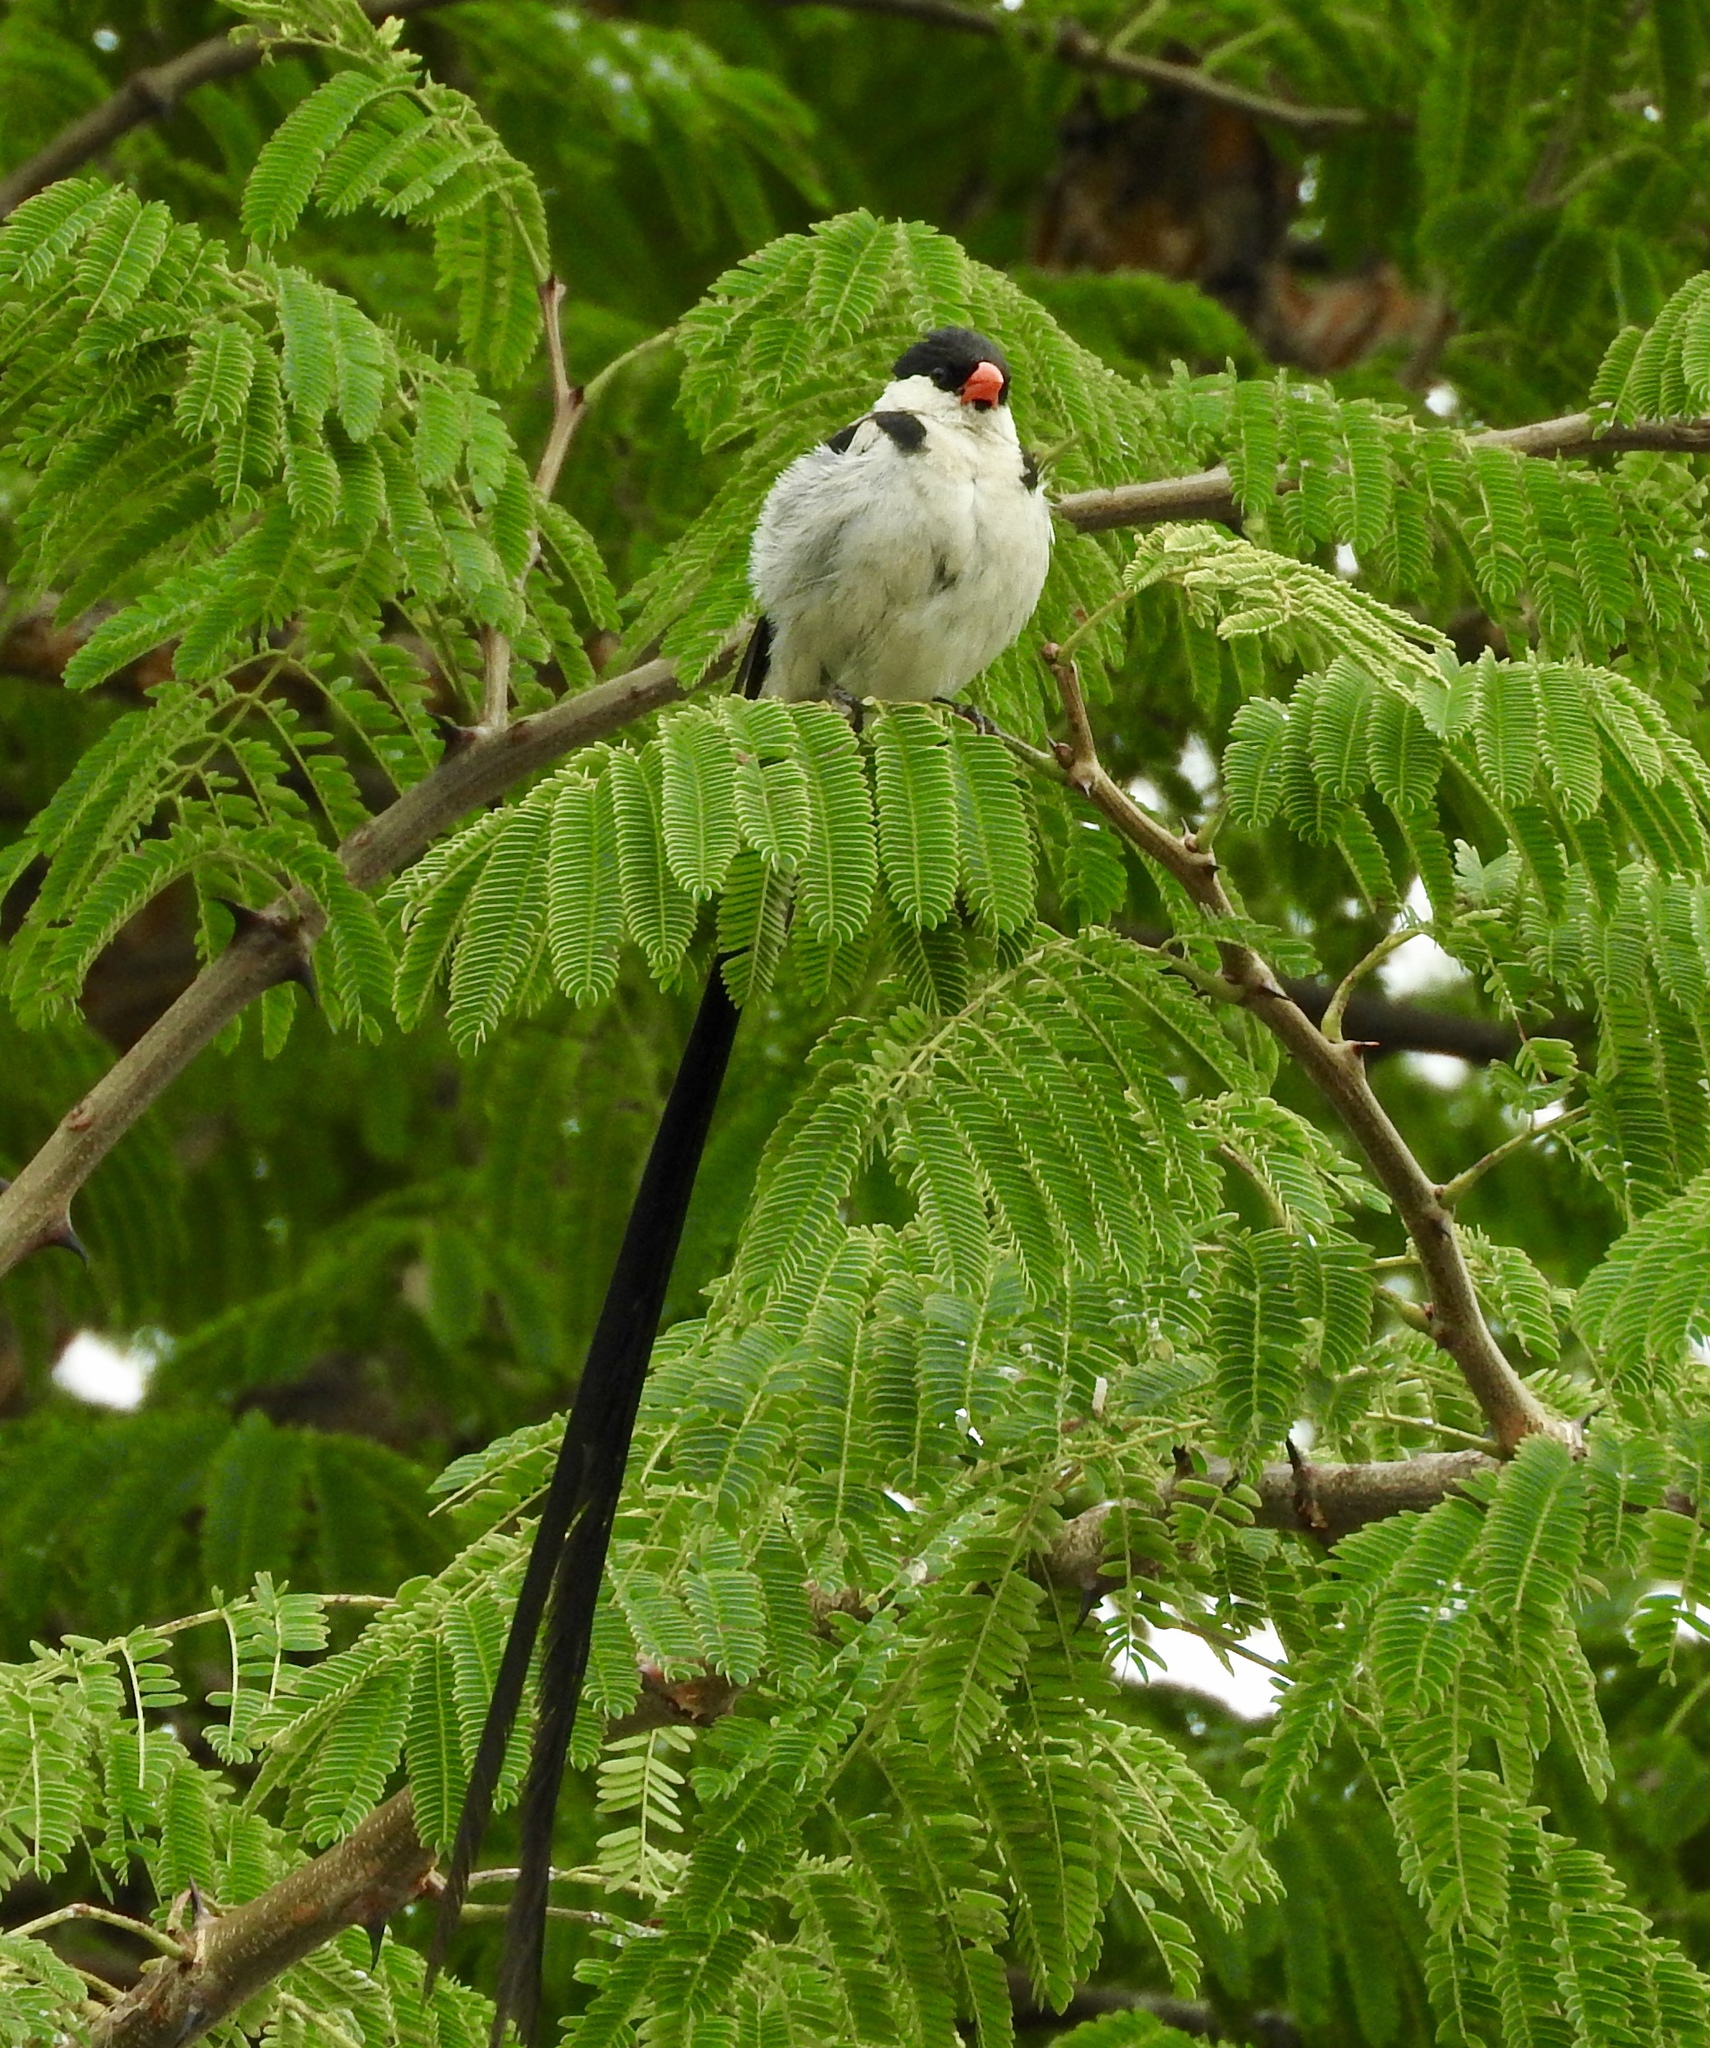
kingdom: Animalia
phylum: Chordata
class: Aves
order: Passeriformes
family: Viduidae
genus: Vidua
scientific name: Vidua macroura
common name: Pin-tailed whydah
